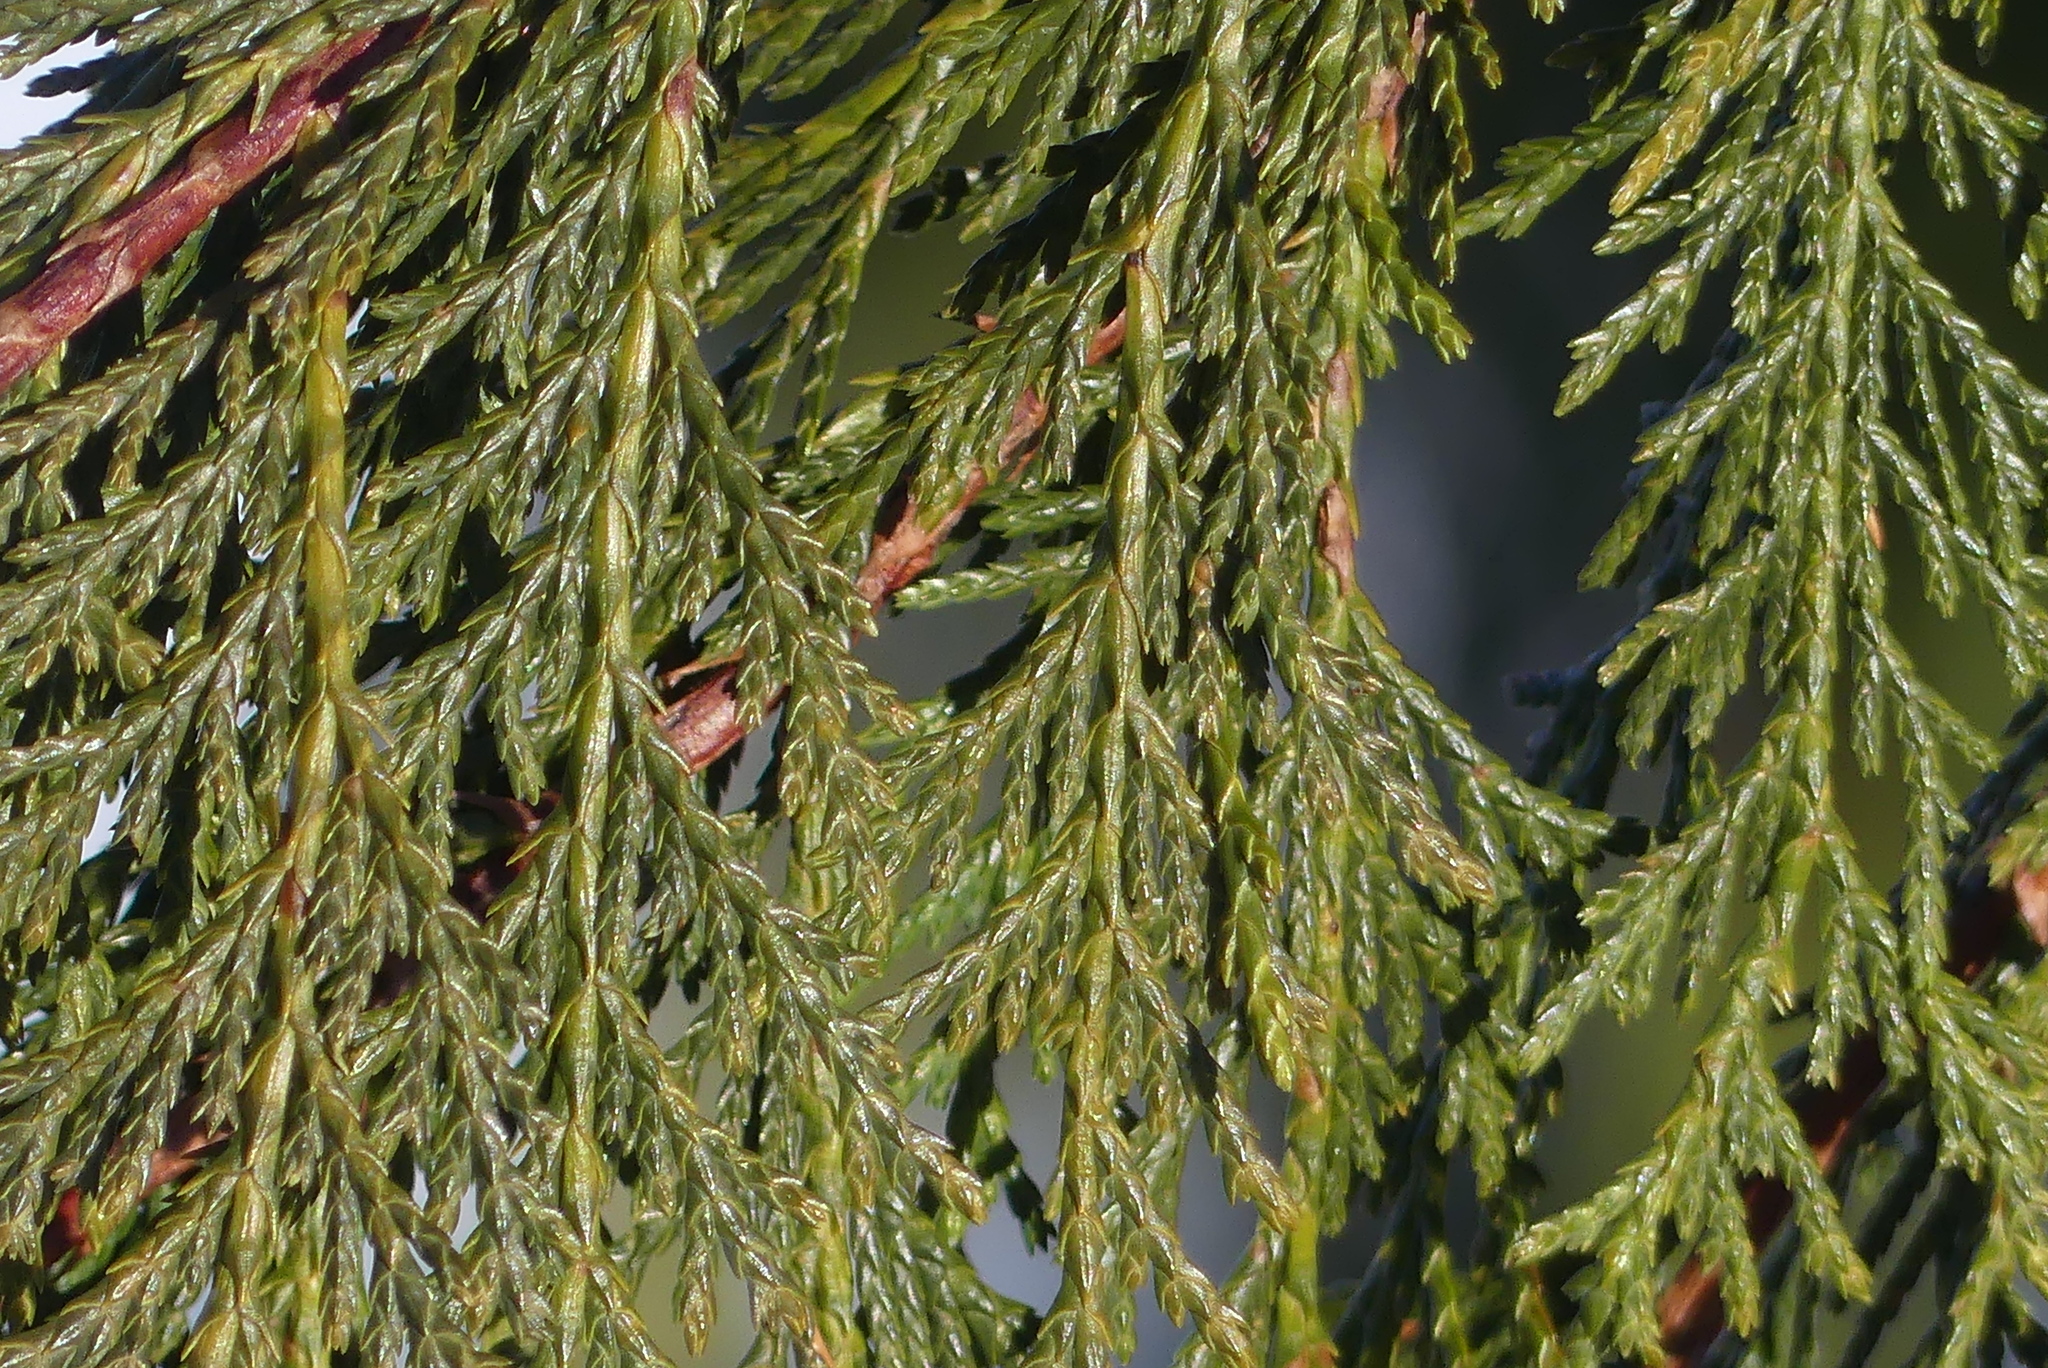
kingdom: Plantae
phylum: Tracheophyta
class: Pinopsida
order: Pinales
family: Cupressaceae
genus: Xanthocyparis
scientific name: Xanthocyparis nootkatensis
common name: Nootka cypress
